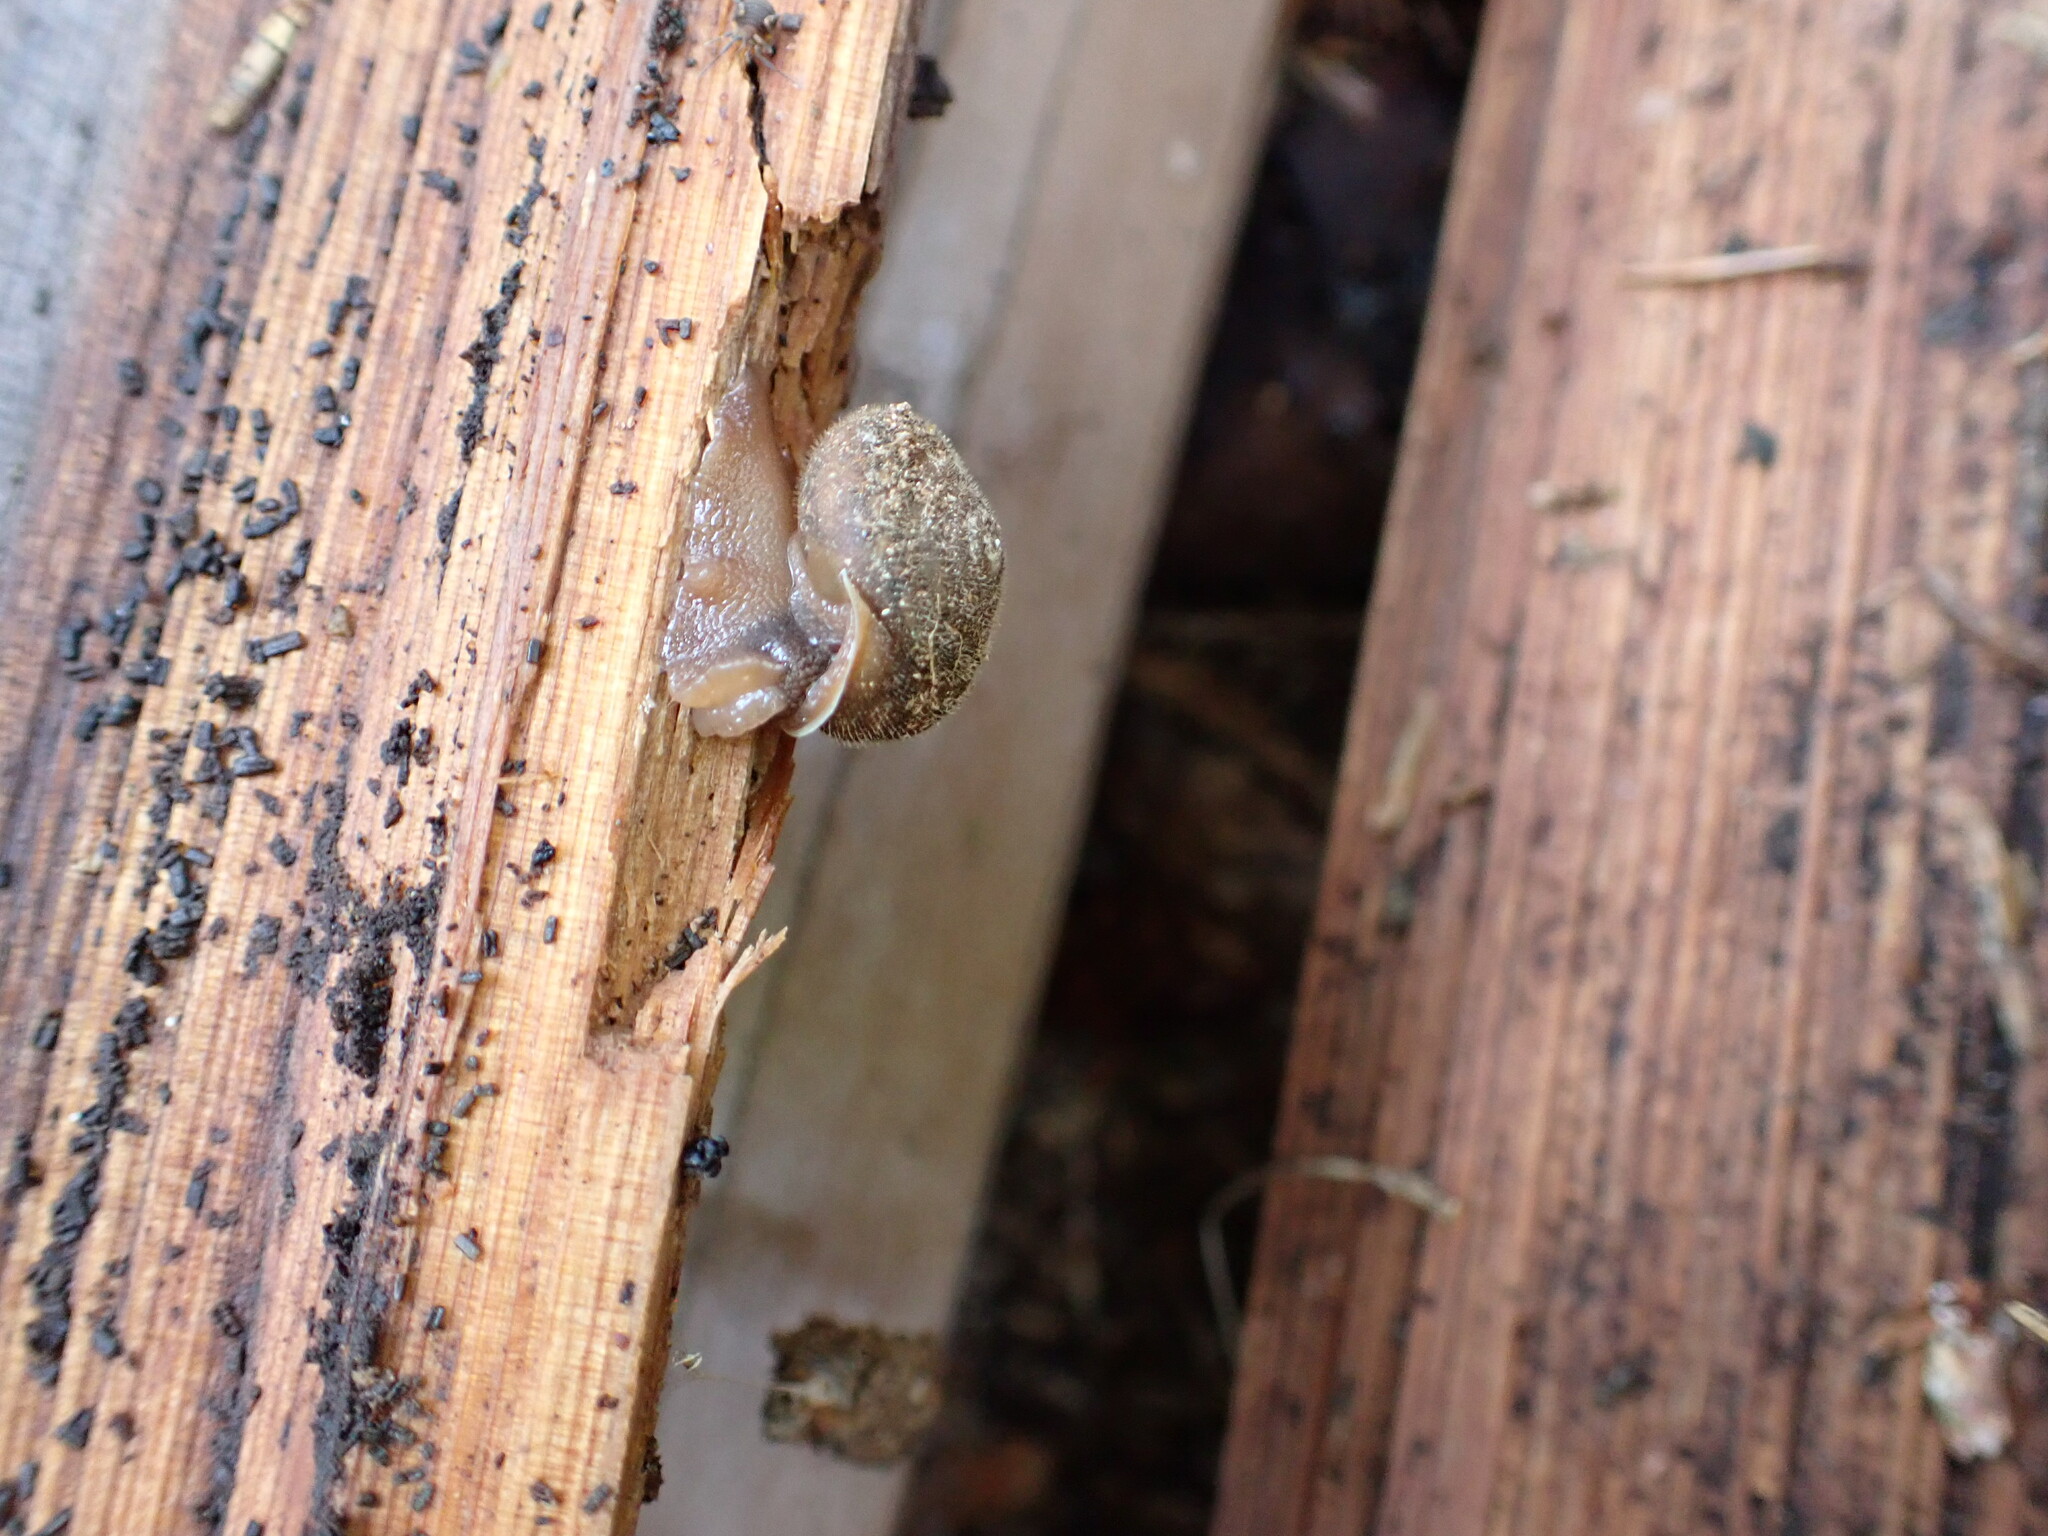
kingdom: Animalia
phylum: Mollusca
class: Gastropoda
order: Stylommatophora
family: Polygyridae
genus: Vespericola
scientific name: Vespericola columbianus
